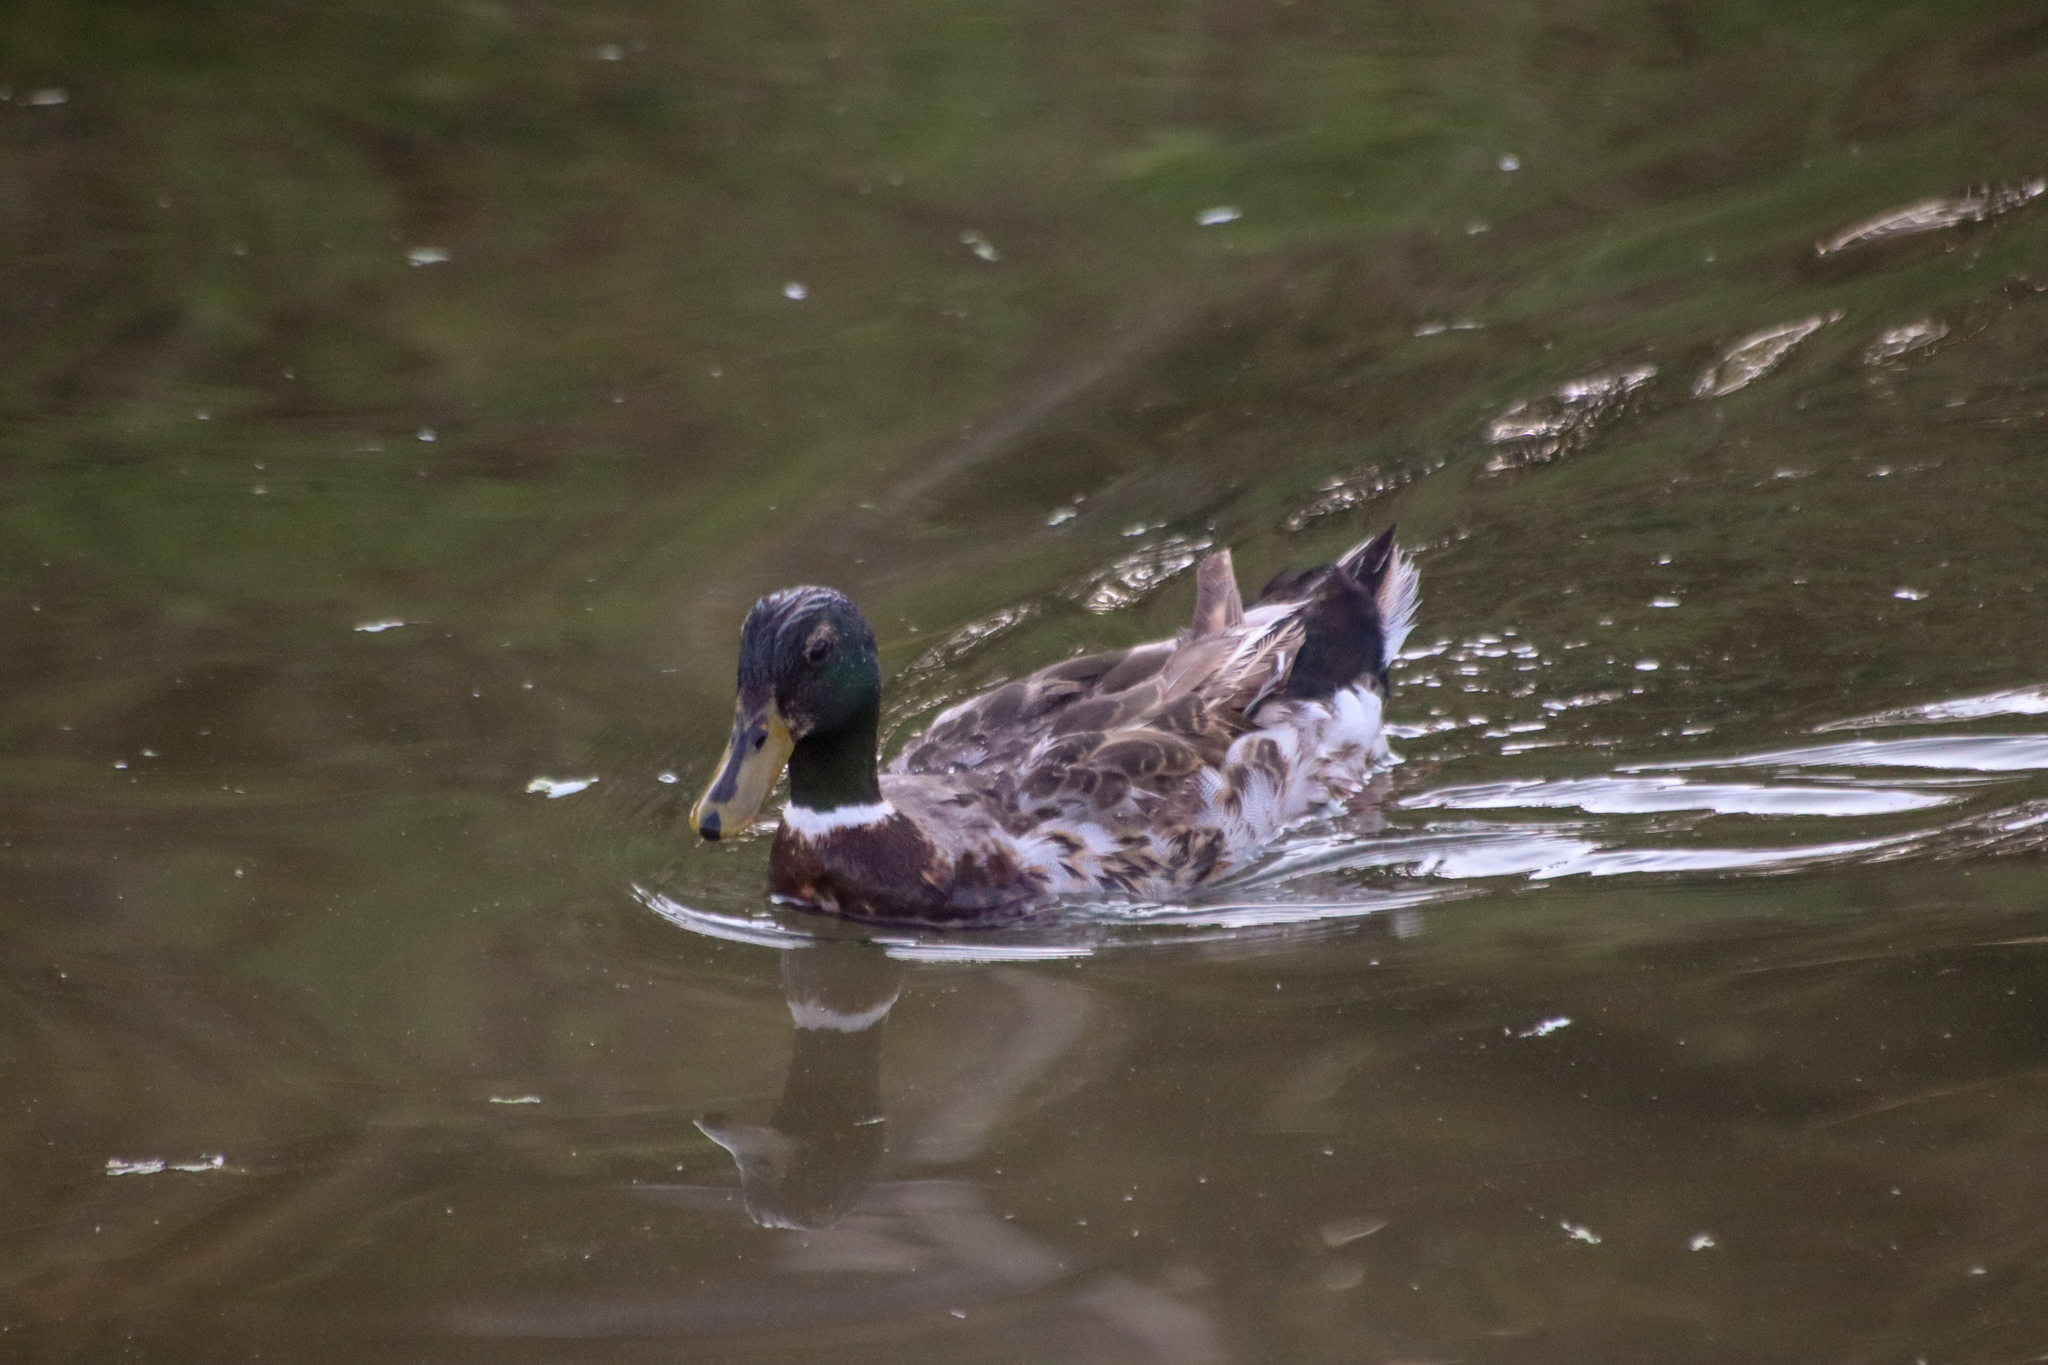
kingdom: Animalia
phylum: Chordata
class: Aves
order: Anseriformes
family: Anatidae
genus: Anas
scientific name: Anas platyrhynchos
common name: Mallard
